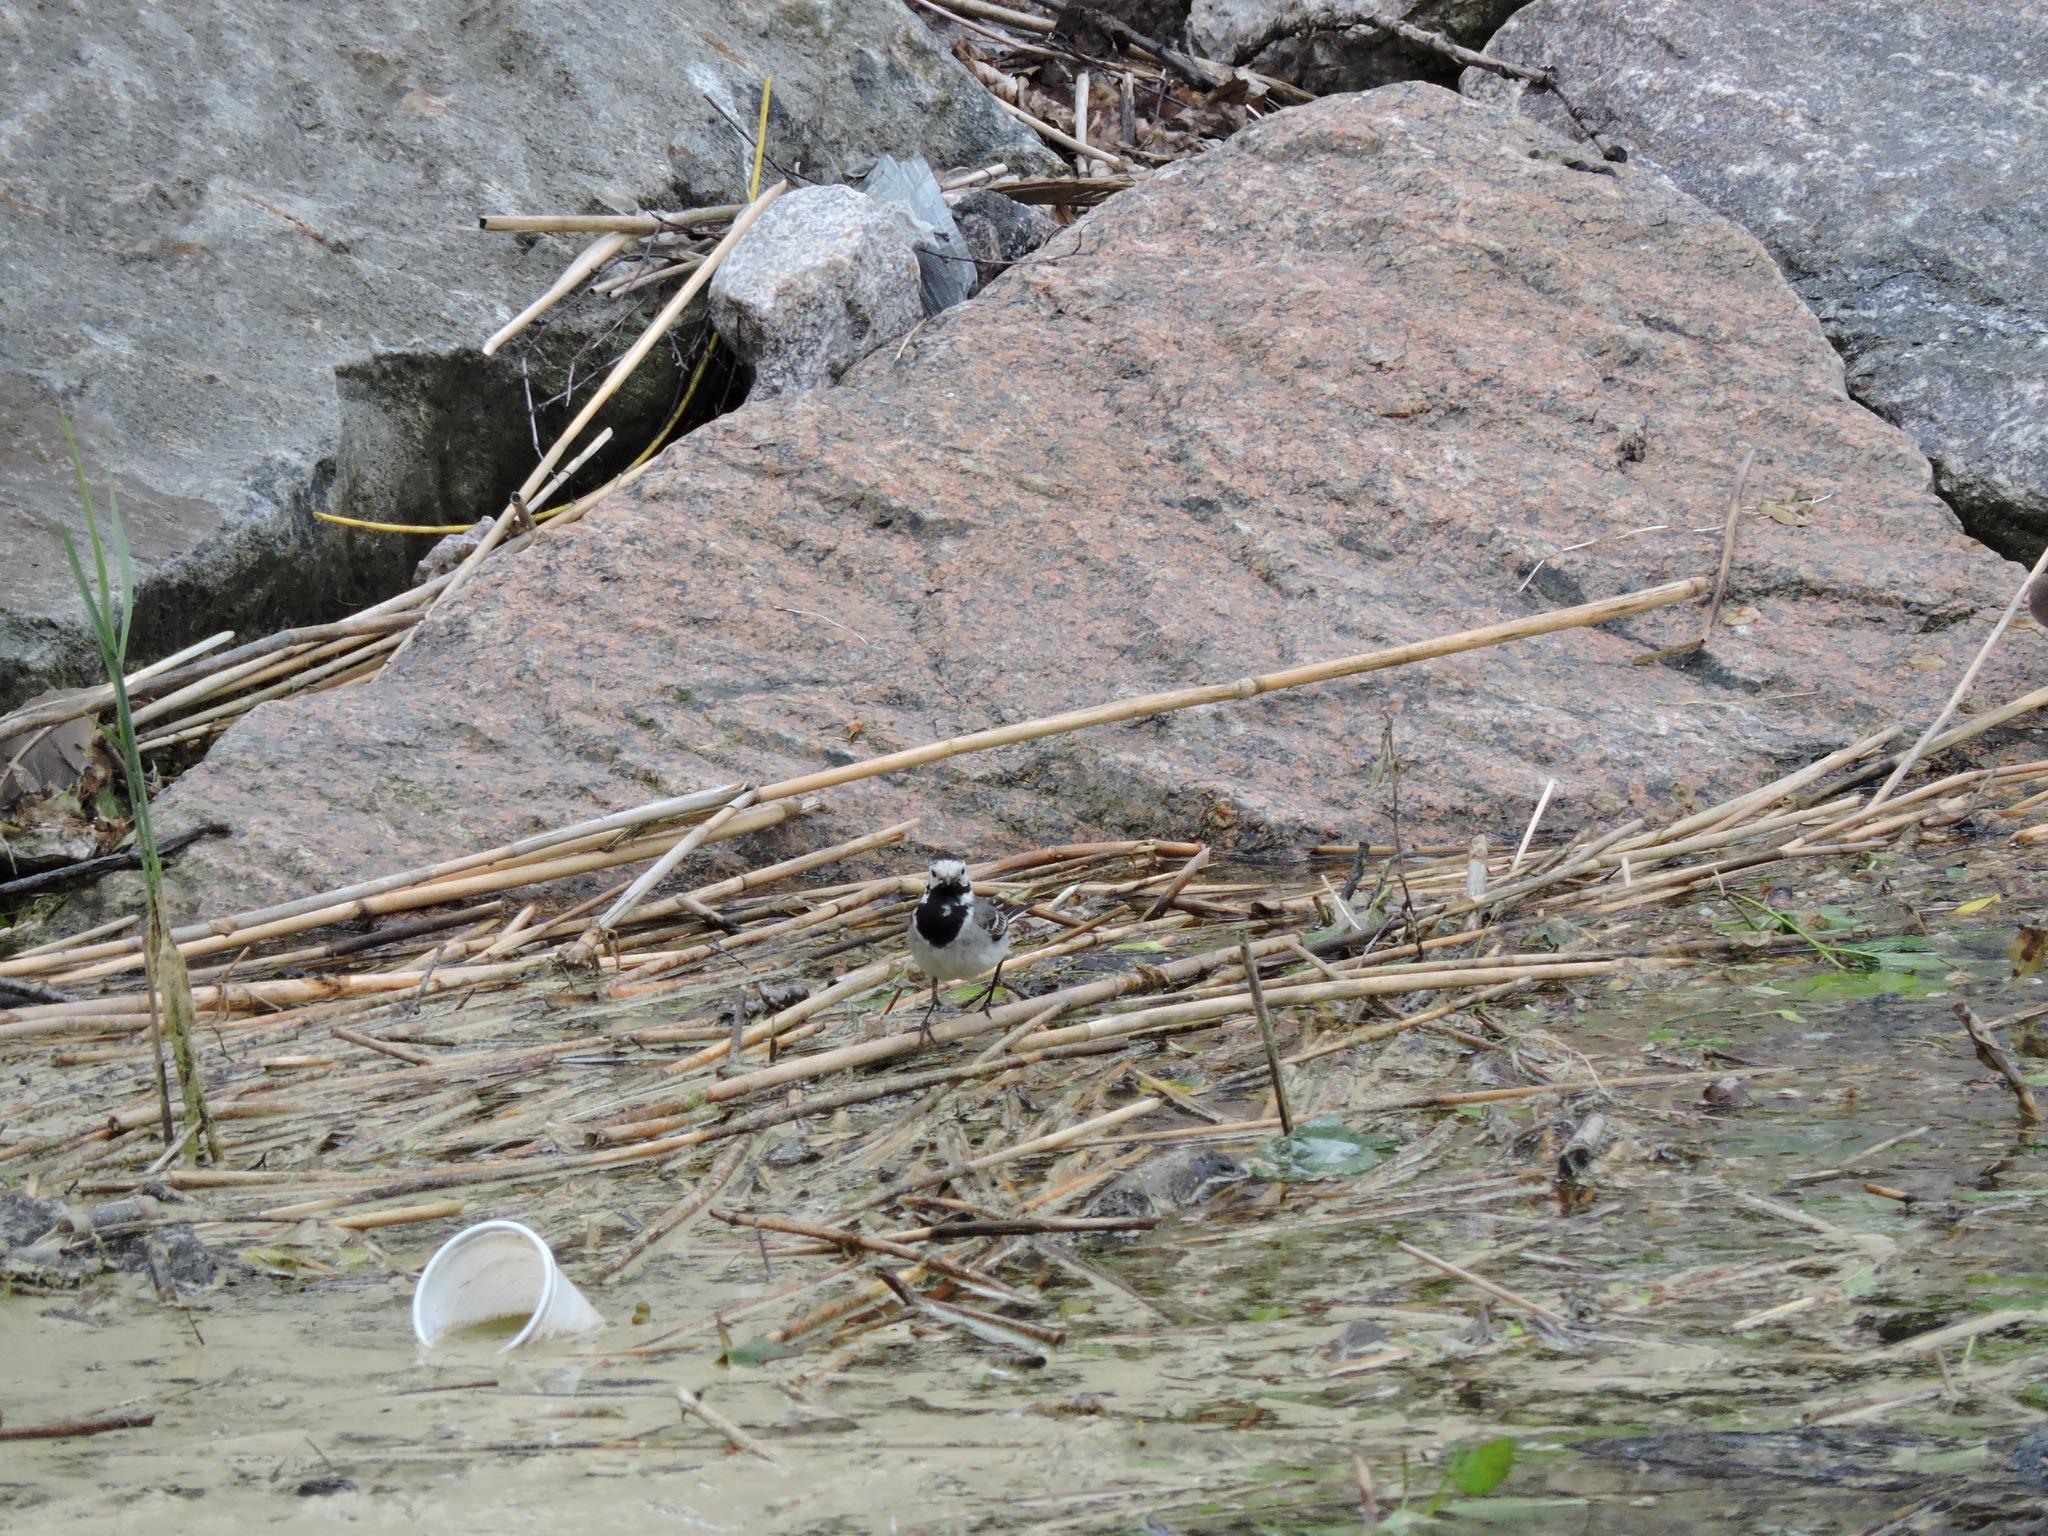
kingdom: Animalia
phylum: Chordata
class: Aves
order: Passeriformes
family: Motacillidae
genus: Motacilla
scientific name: Motacilla alba
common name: White wagtail
